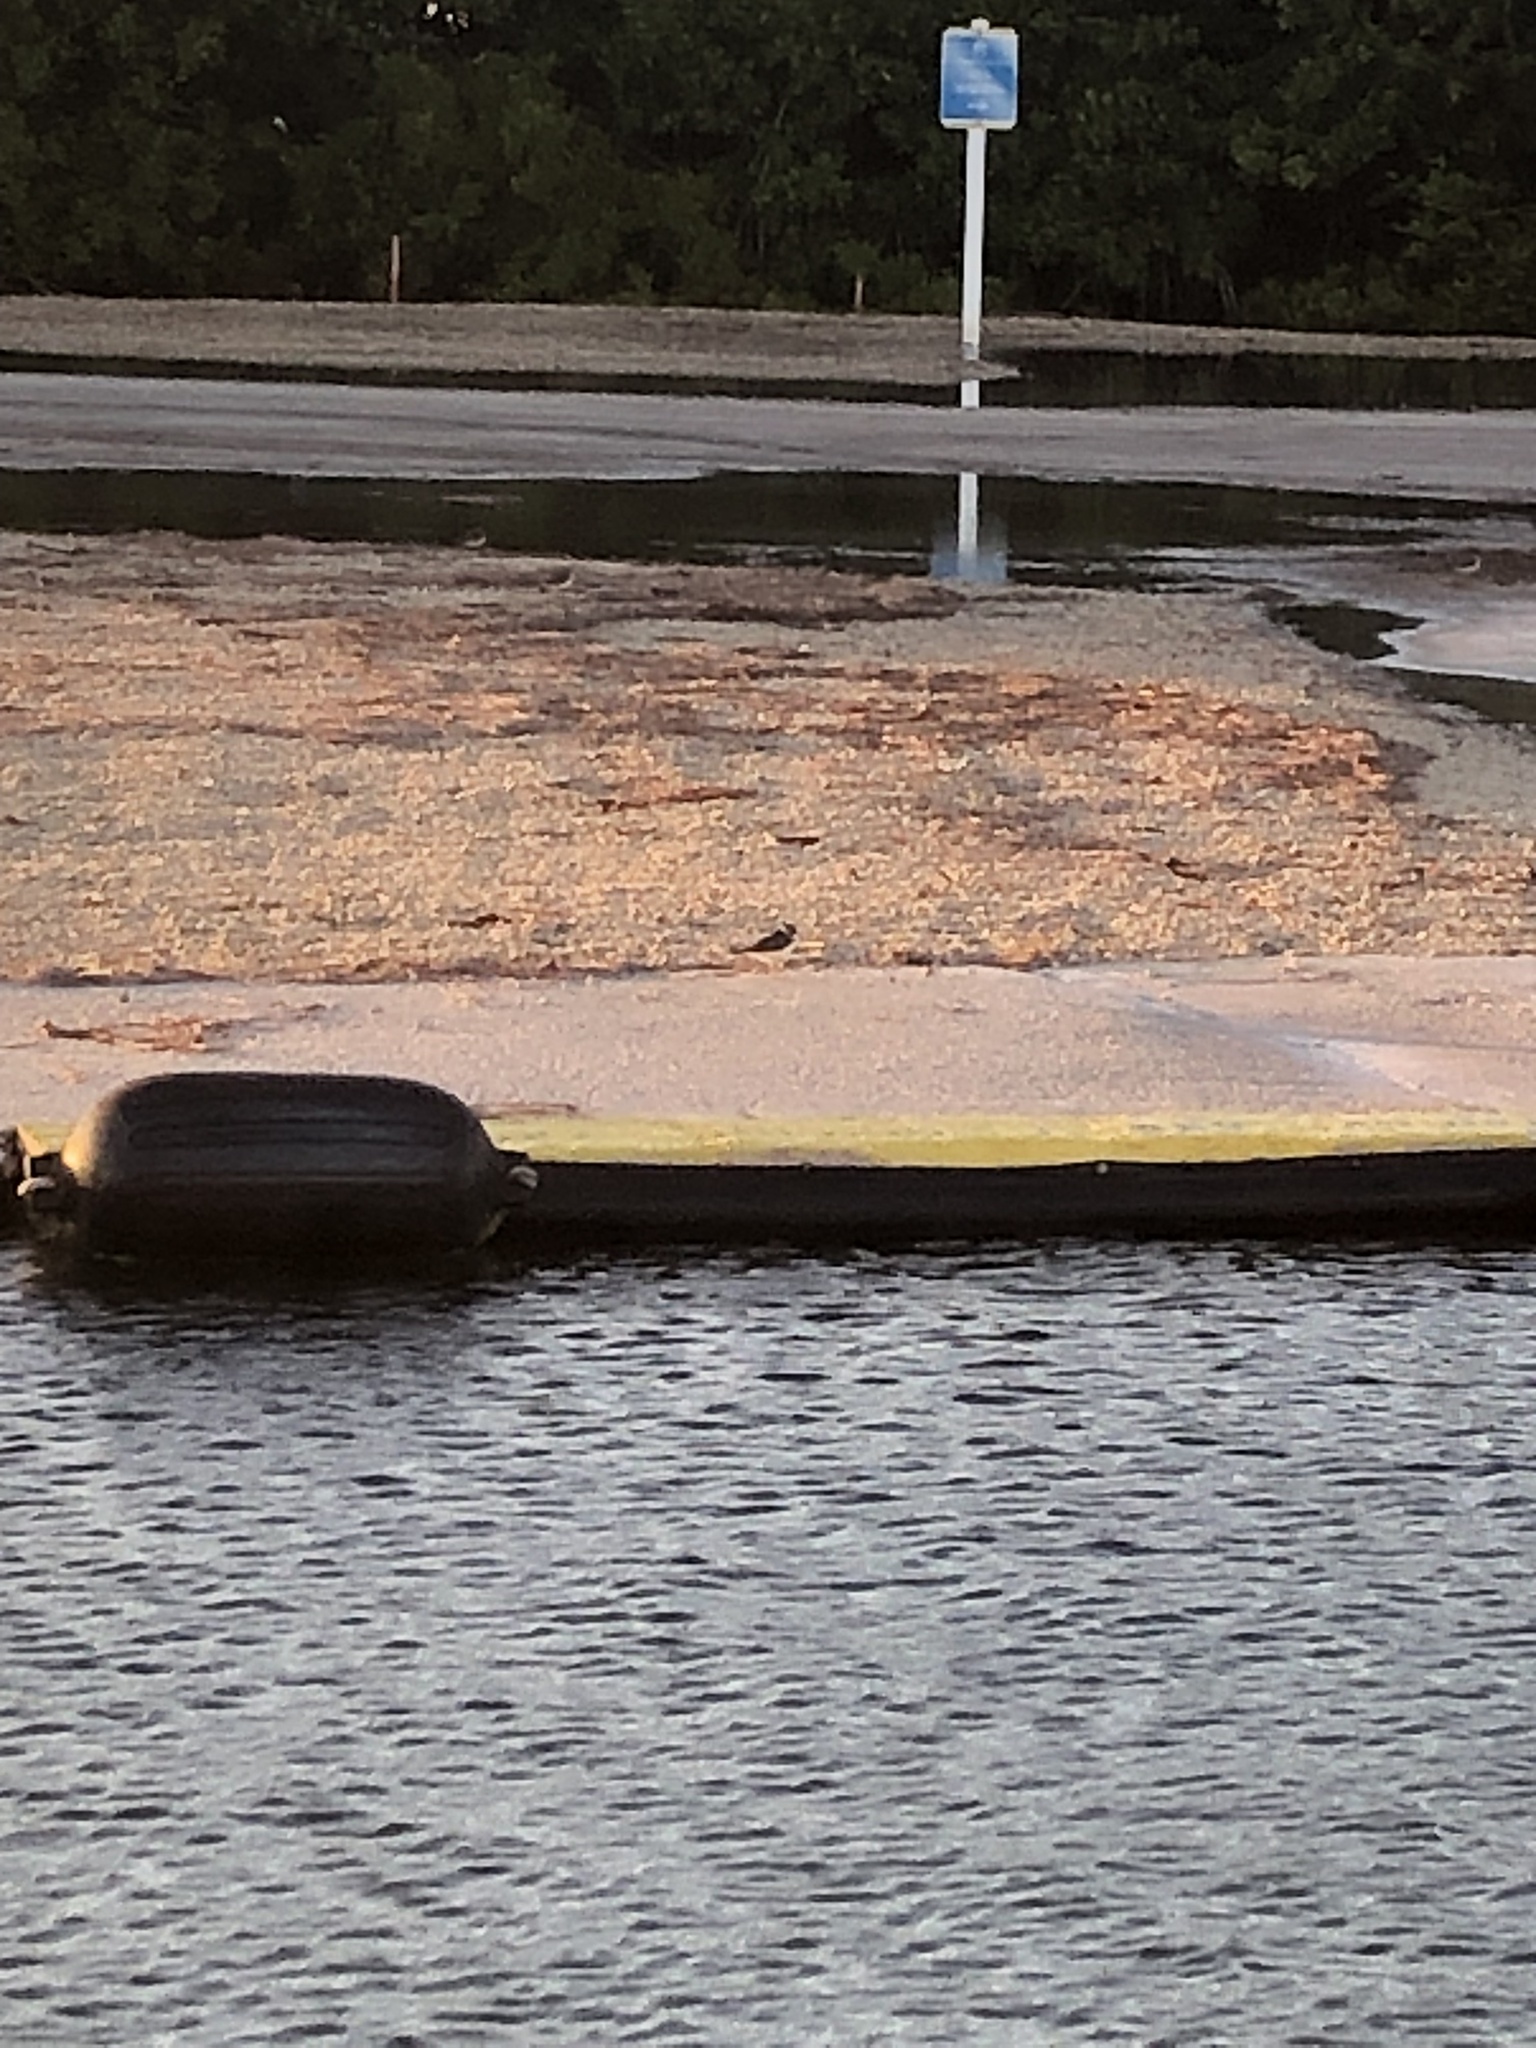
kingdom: Animalia
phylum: Chordata
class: Aves
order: Charadriiformes
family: Scolopacidae
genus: Arenaria
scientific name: Arenaria interpres
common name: Ruddy turnstone
